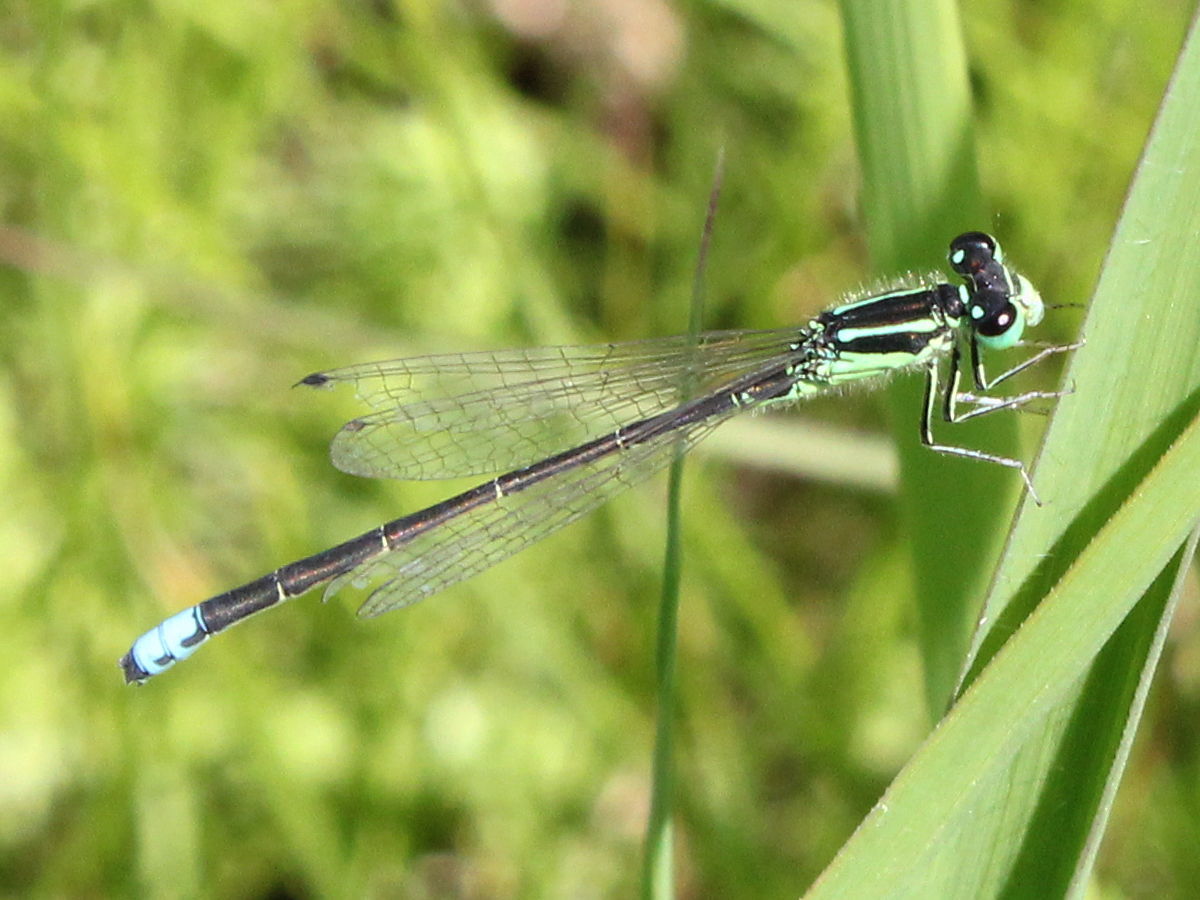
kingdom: Animalia
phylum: Arthropoda
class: Insecta
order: Odonata
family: Coenagrionidae
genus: Ischnura
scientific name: Ischnura verticalis
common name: Eastern forktail
